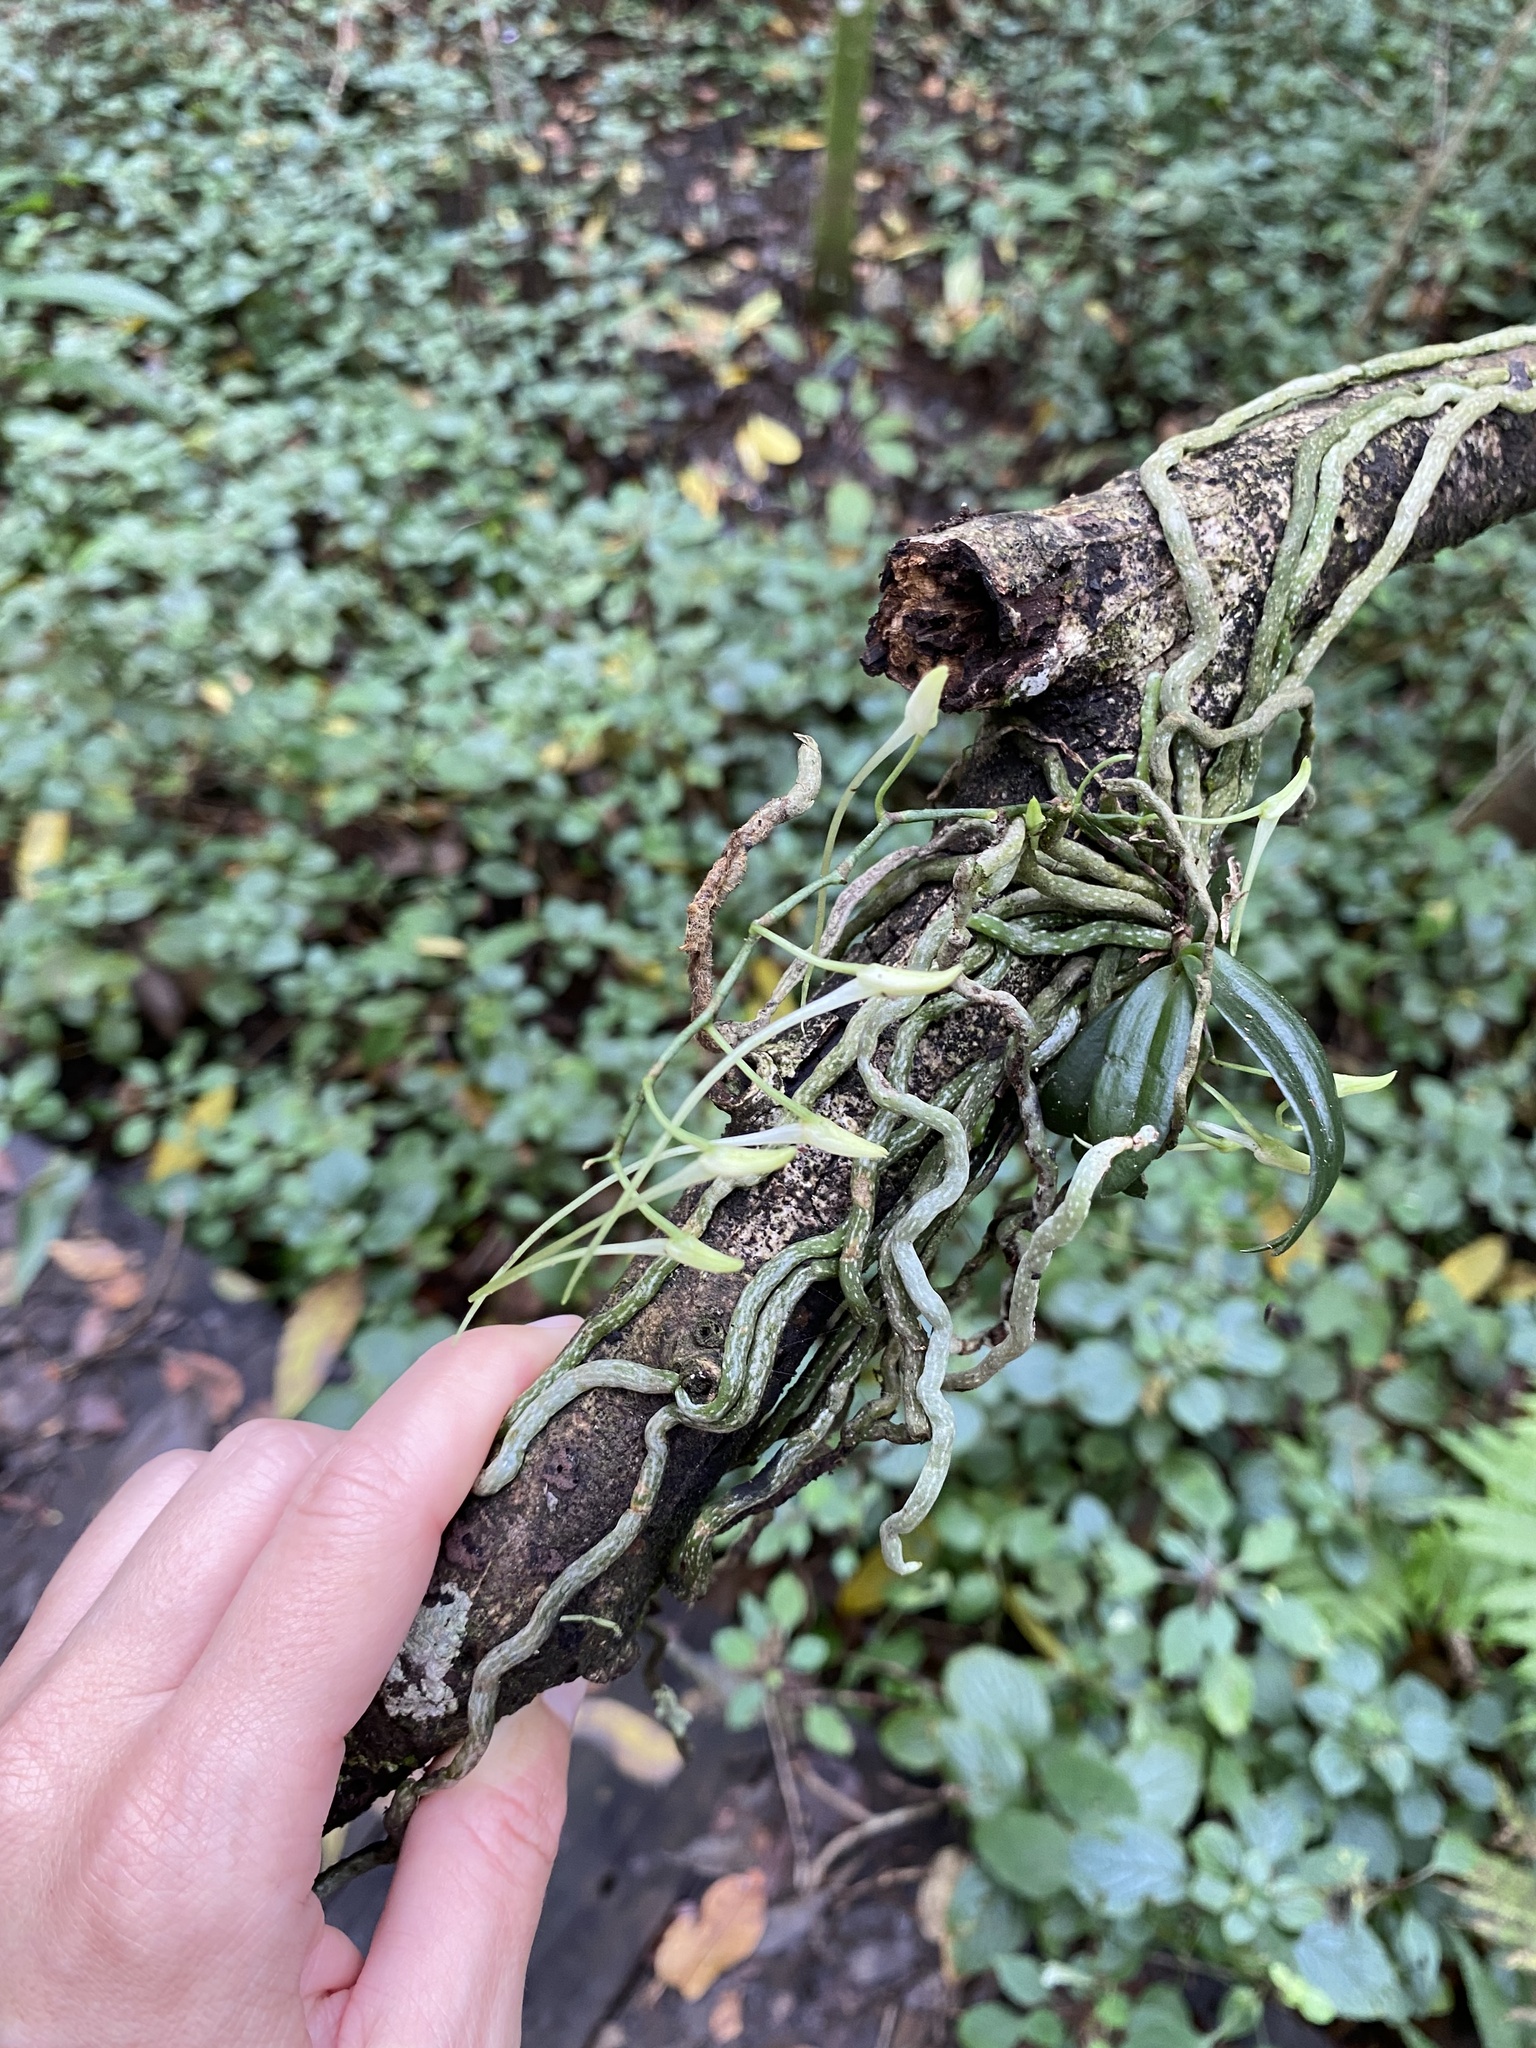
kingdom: Plantae
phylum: Tracheophyta
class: Liliopsida
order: Asparagales
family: Orchidaceae
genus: Mystacidium
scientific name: Mystacidium venosum
